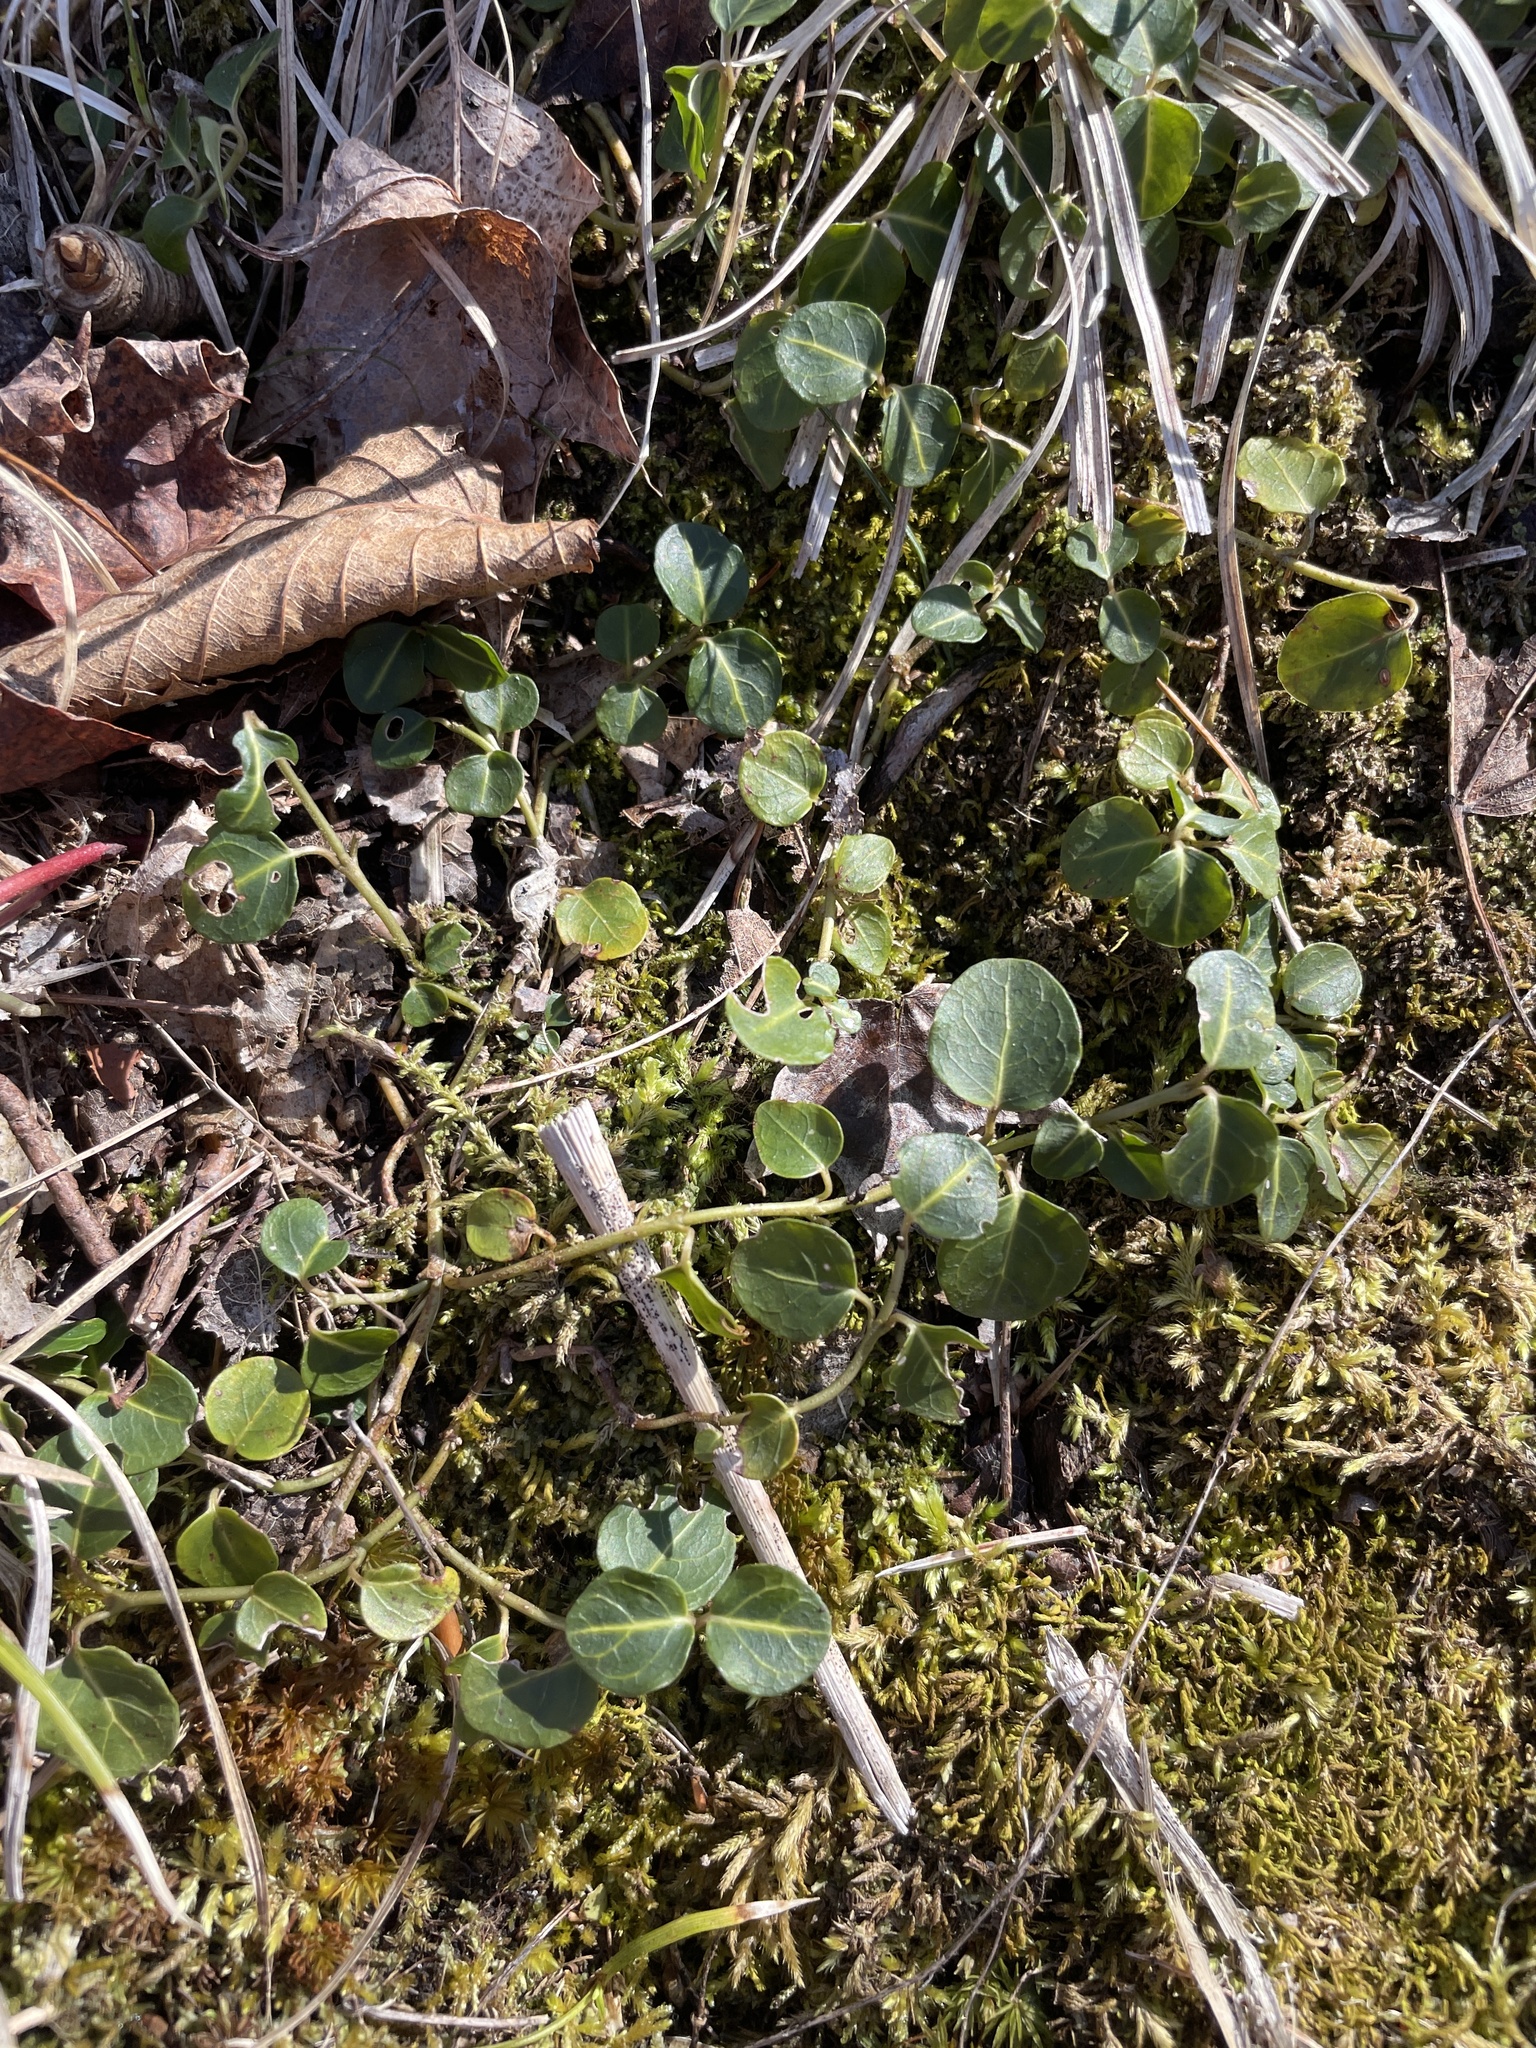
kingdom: Plantae
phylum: Tracheophyta
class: Magnoliopsida
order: Gentianales
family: Rubiaceae
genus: Mitchella
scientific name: Mitchella repens
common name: Partridge-berry
